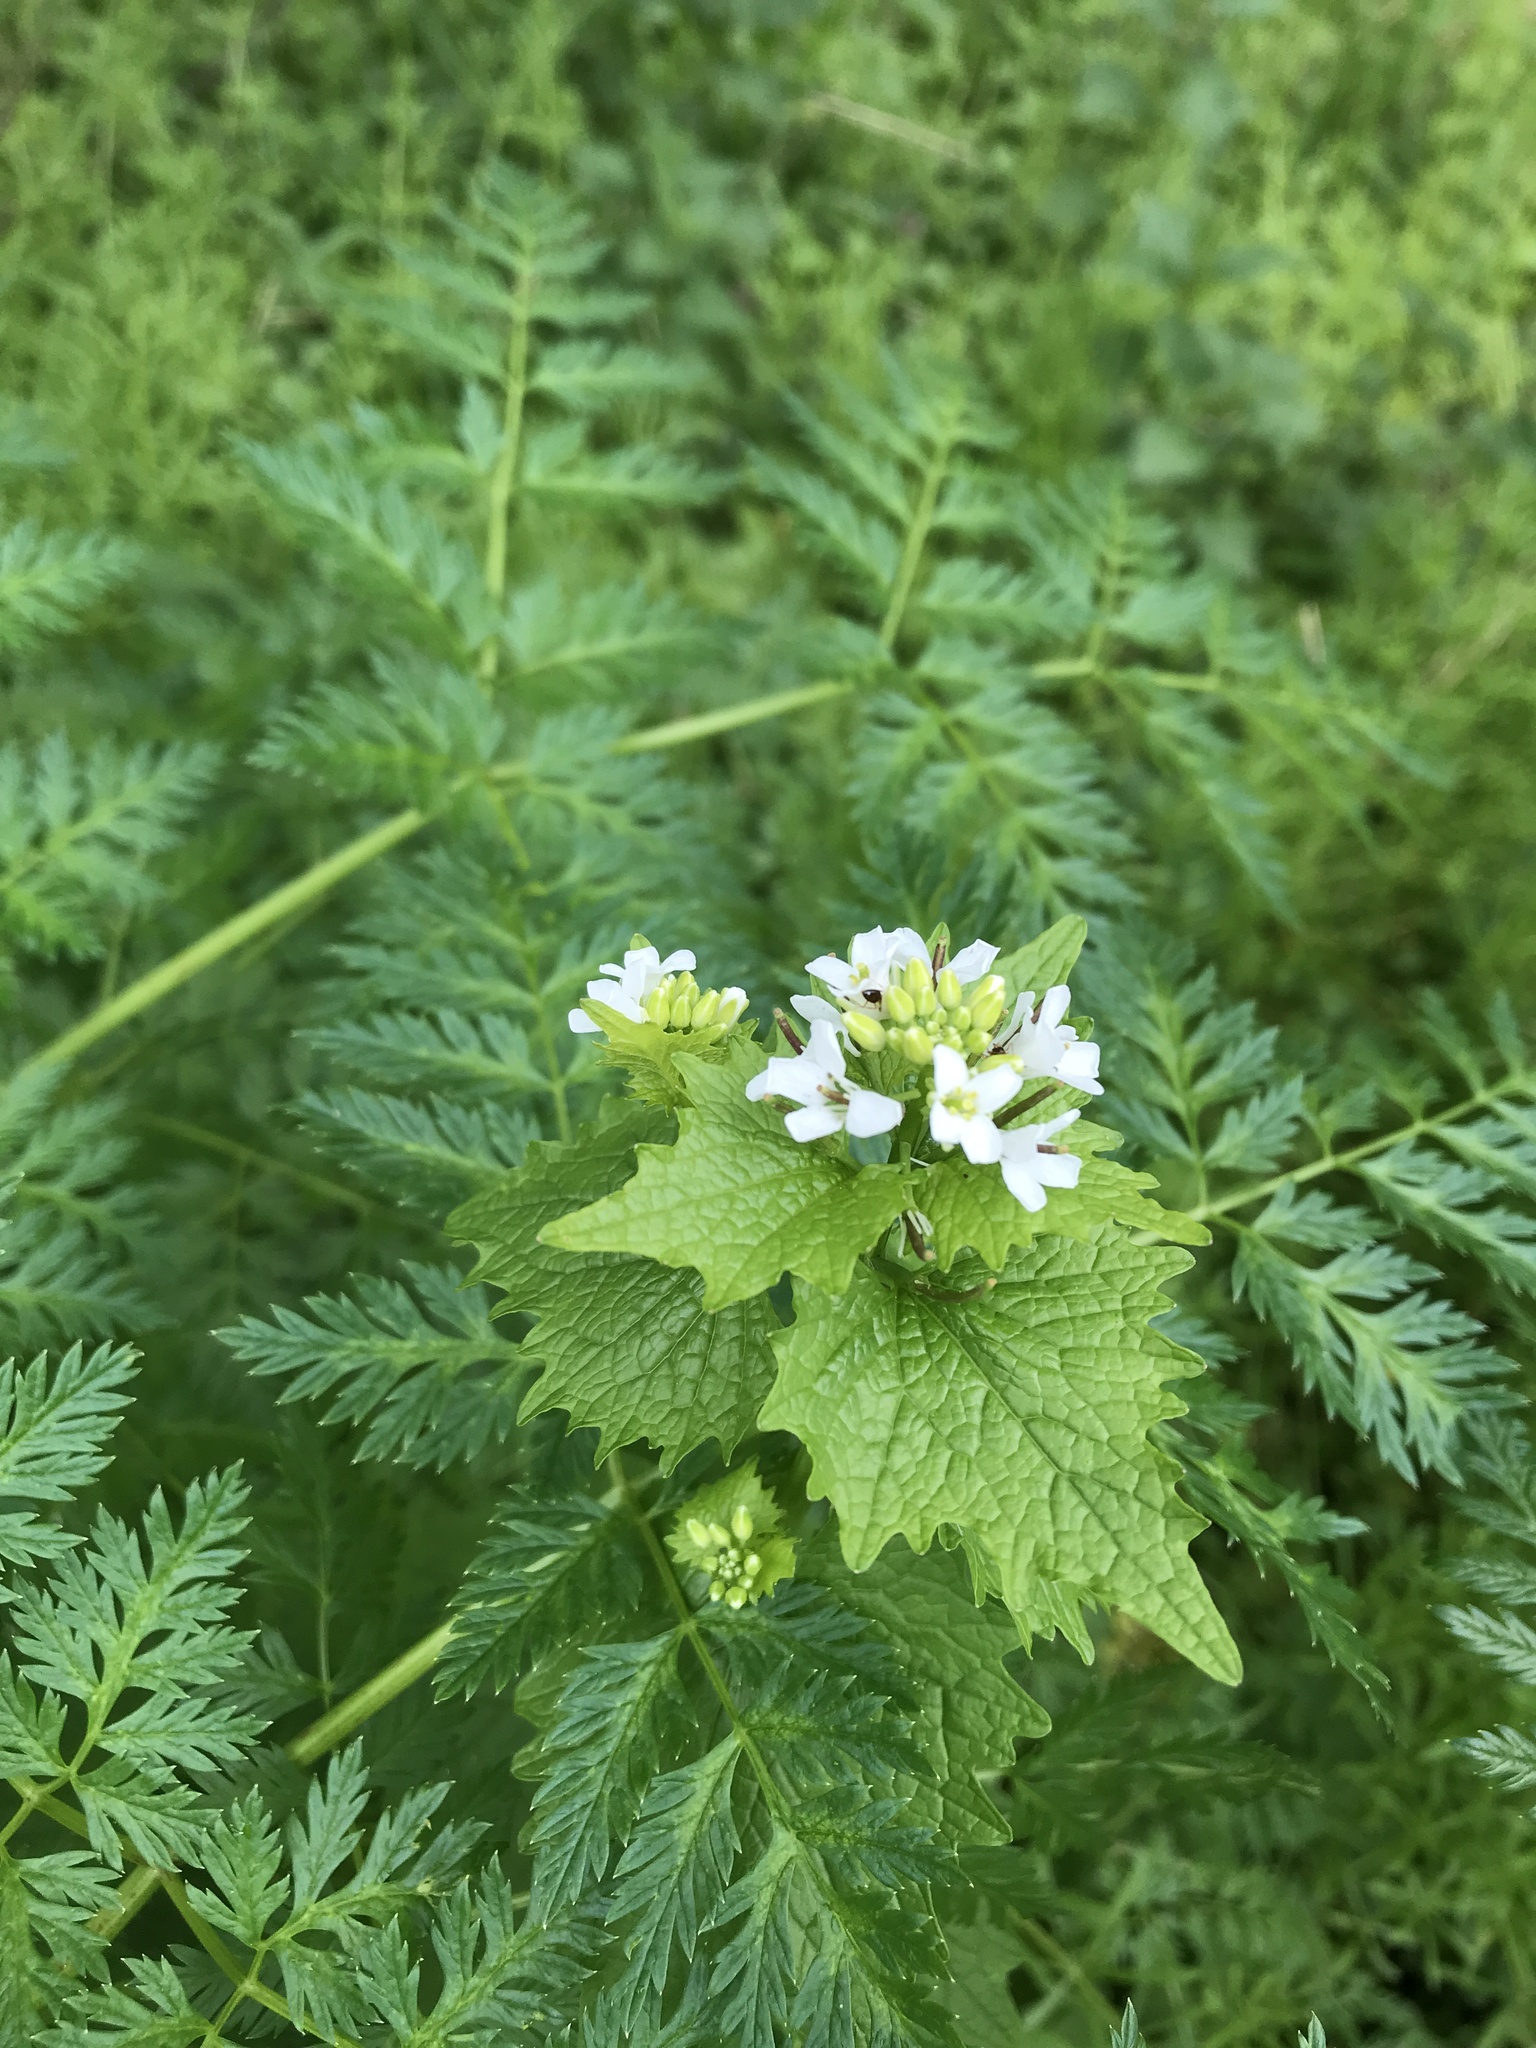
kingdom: Plantae
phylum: Tracheophyta
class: Magnoliopsida
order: Brassicales
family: Brassicaceae
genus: Alliaria
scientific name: Alliaria petiolata
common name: Garlic mustard
